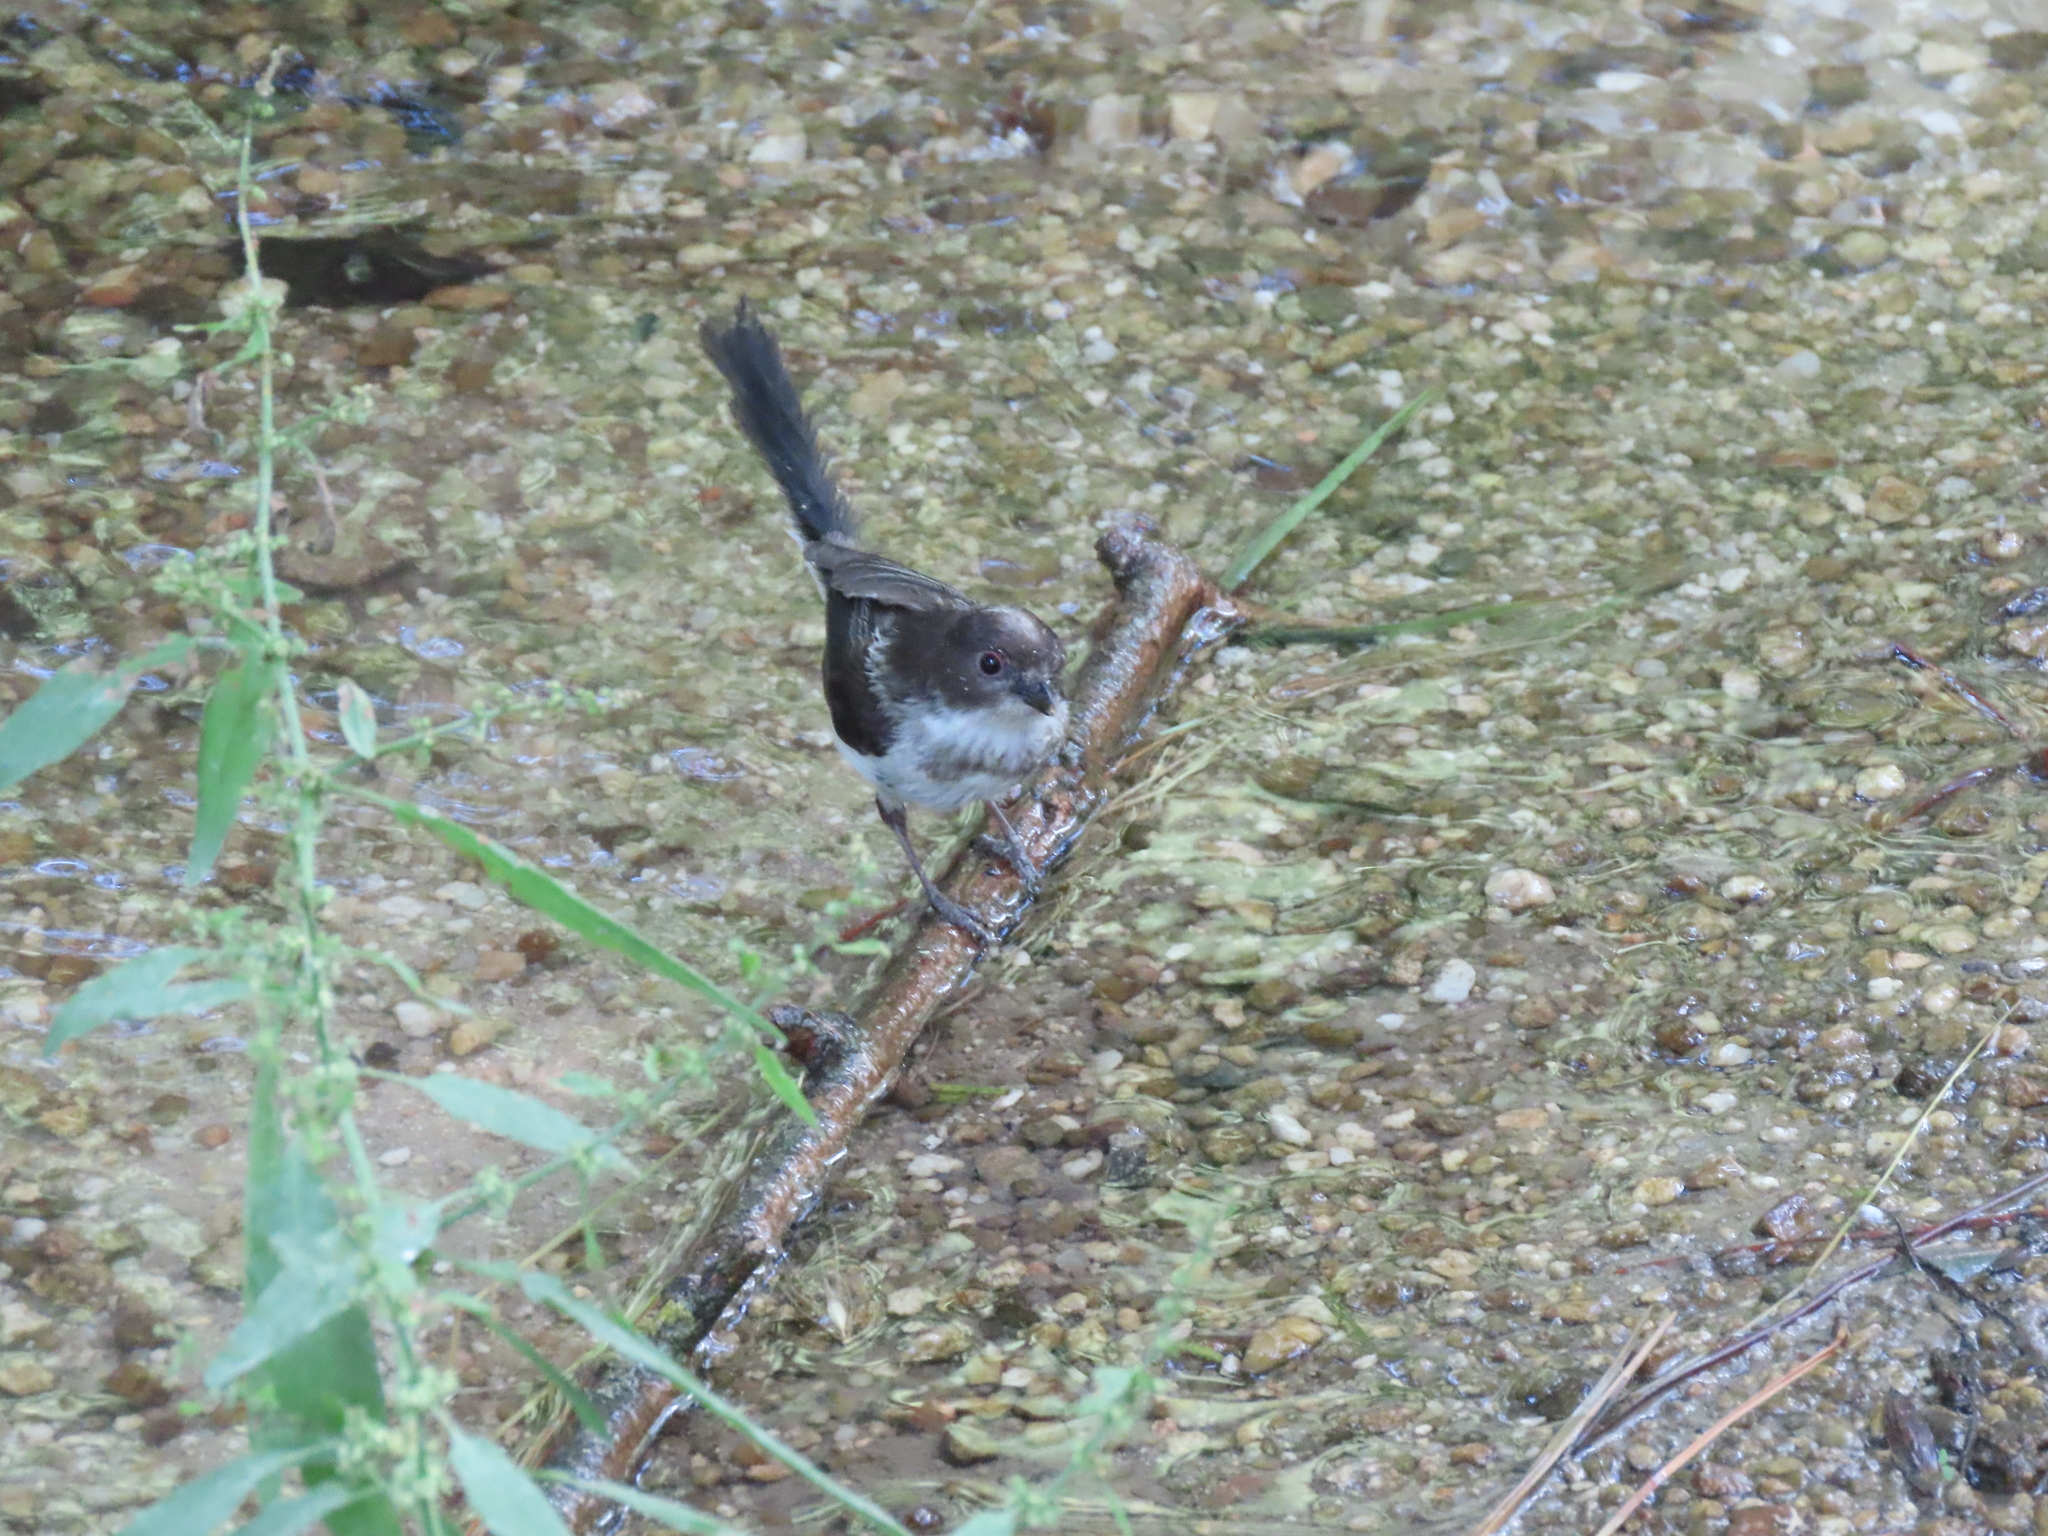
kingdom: Animalia
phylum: Chordata
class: Aves
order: Passeriformes
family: Aegithalidae
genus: Aegithalos
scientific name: Aegithalos caudatus
